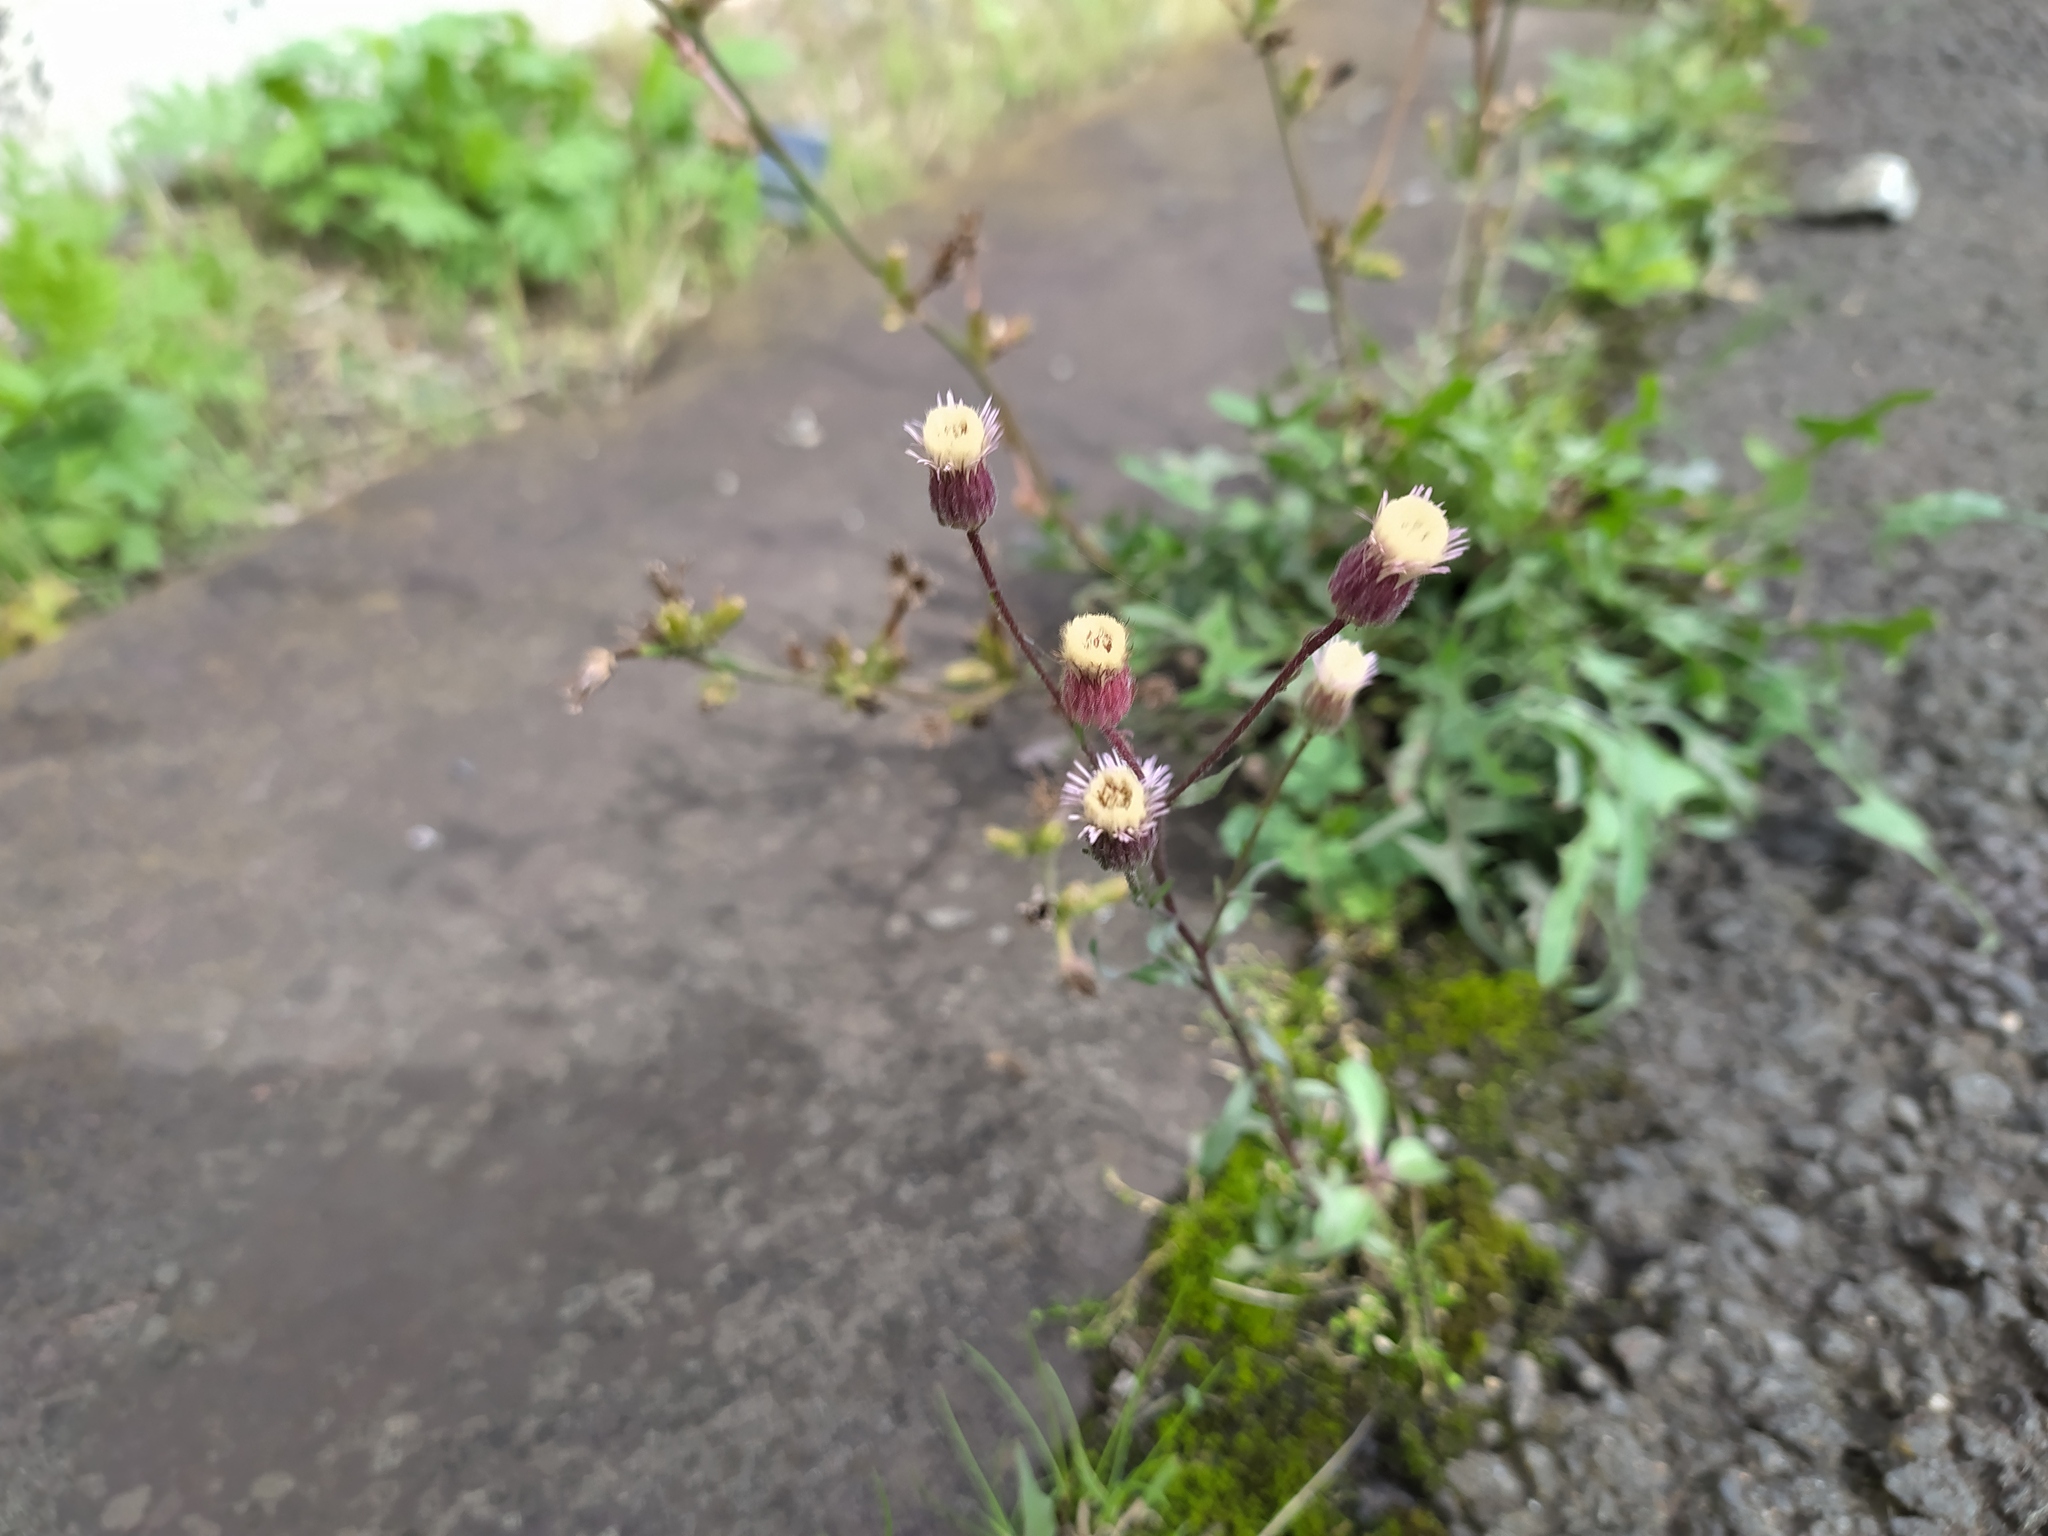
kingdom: Plantae
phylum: Tracheophyta
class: Magnoliopsida
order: Asterales
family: Asteraceae
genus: Erigeron
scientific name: Erigeron muralis
